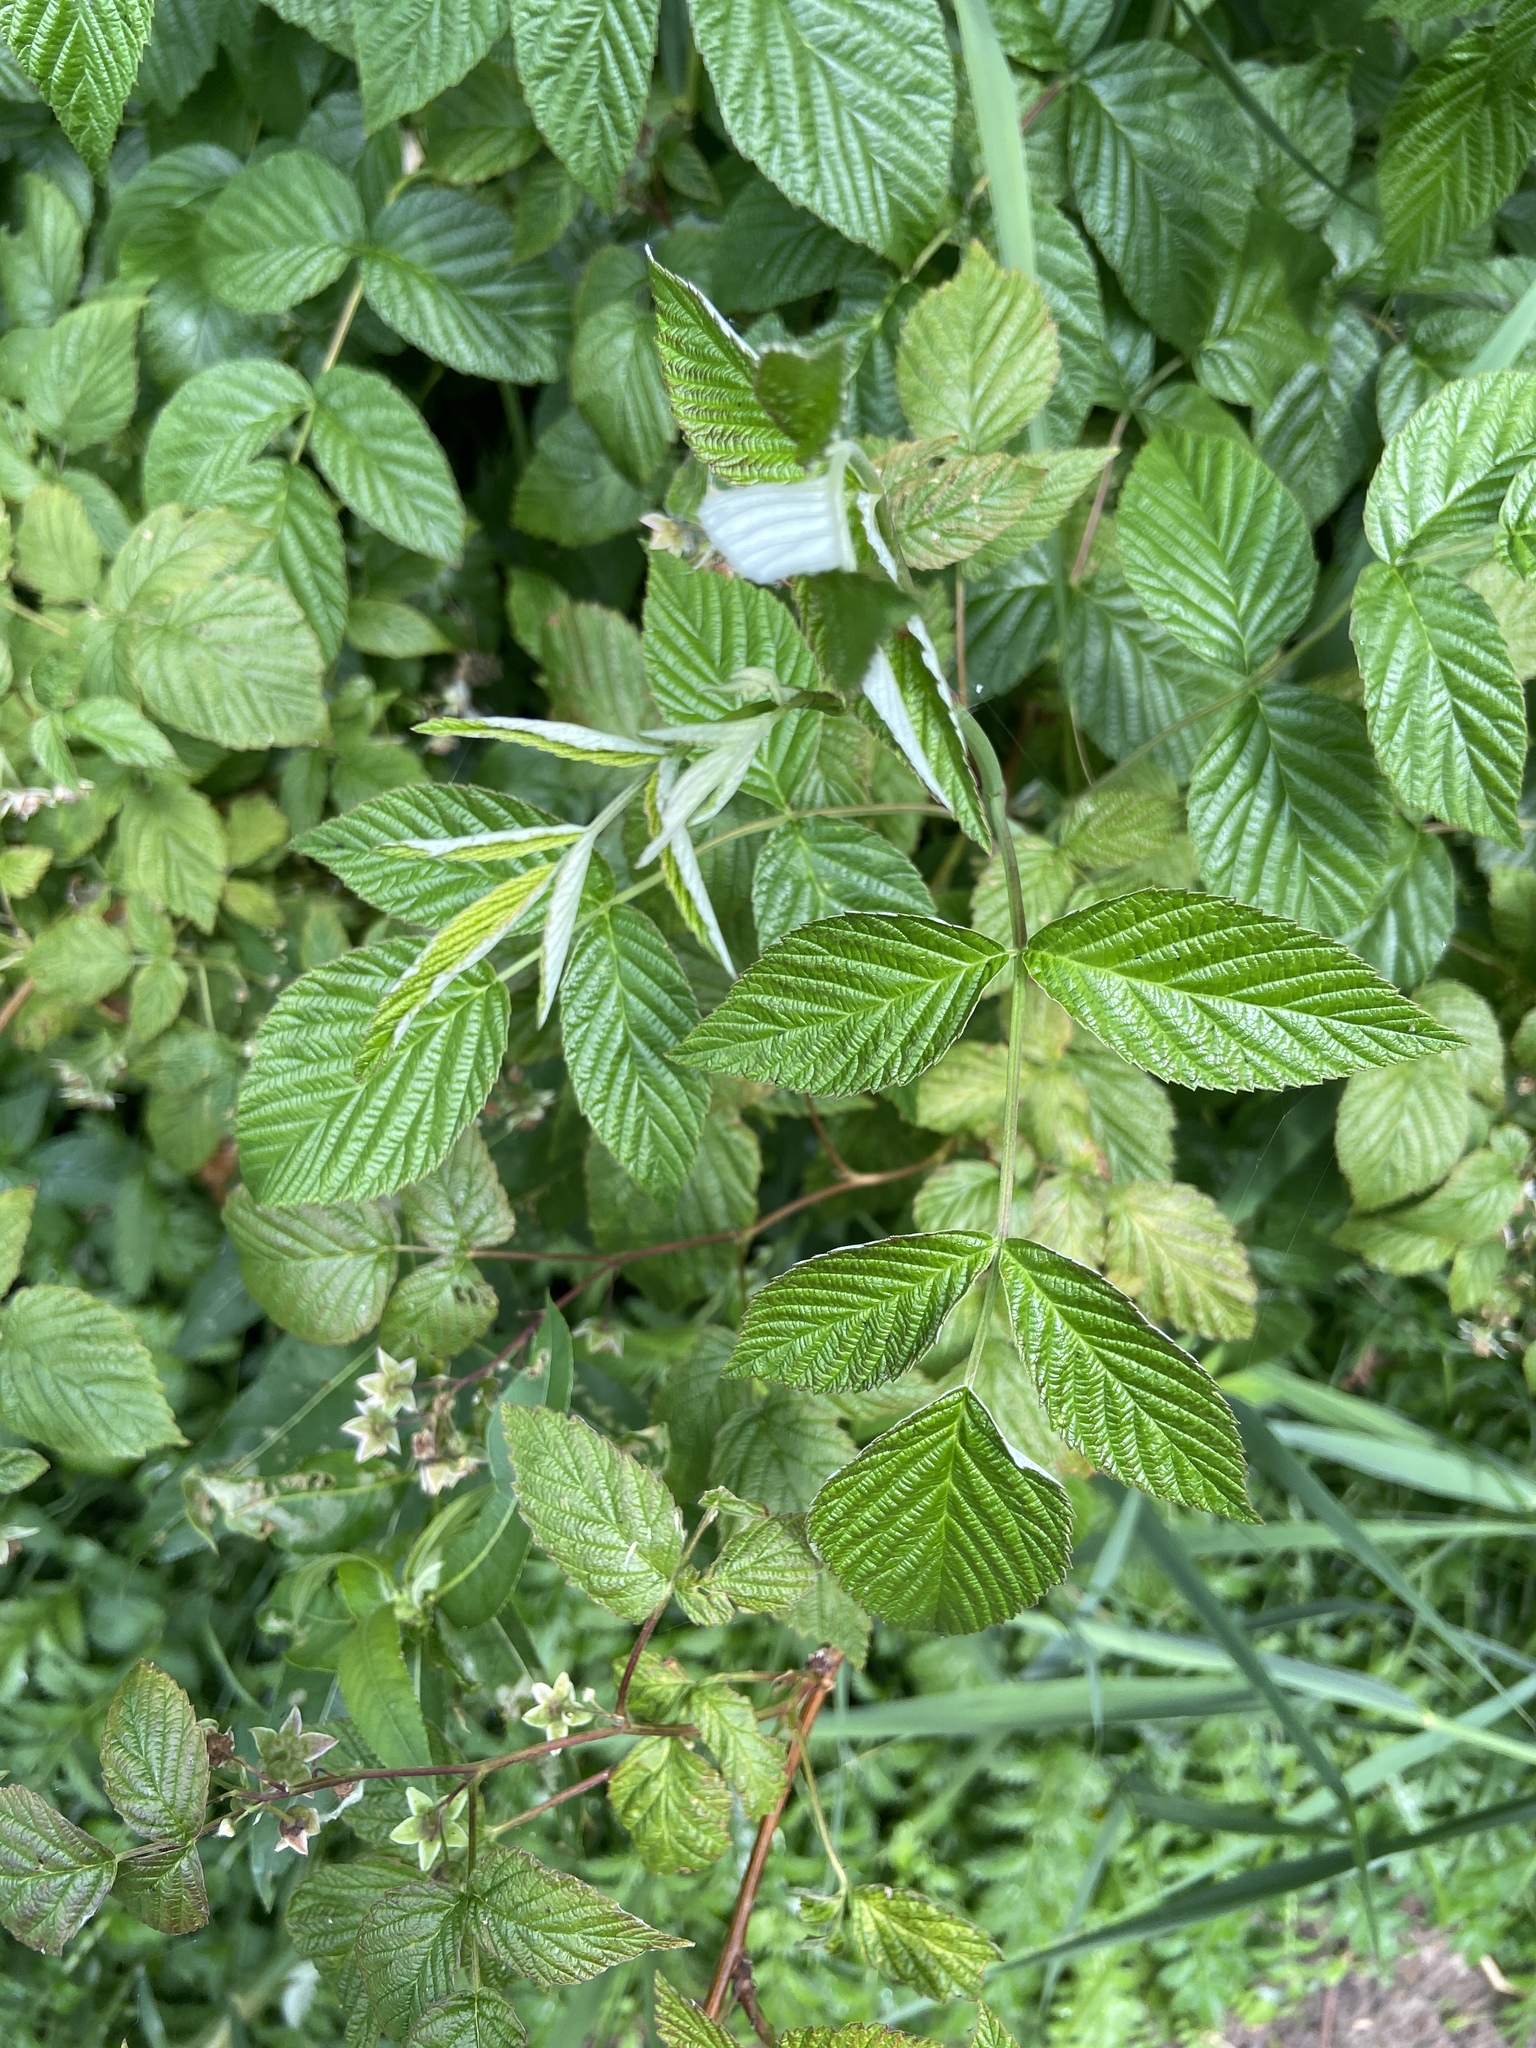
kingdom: Plantae
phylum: Tracheophyta
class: Magnoliopsida
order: Rosales
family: Rosaceae
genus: Rubus
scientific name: Rubus idaeus
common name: Raspberry
